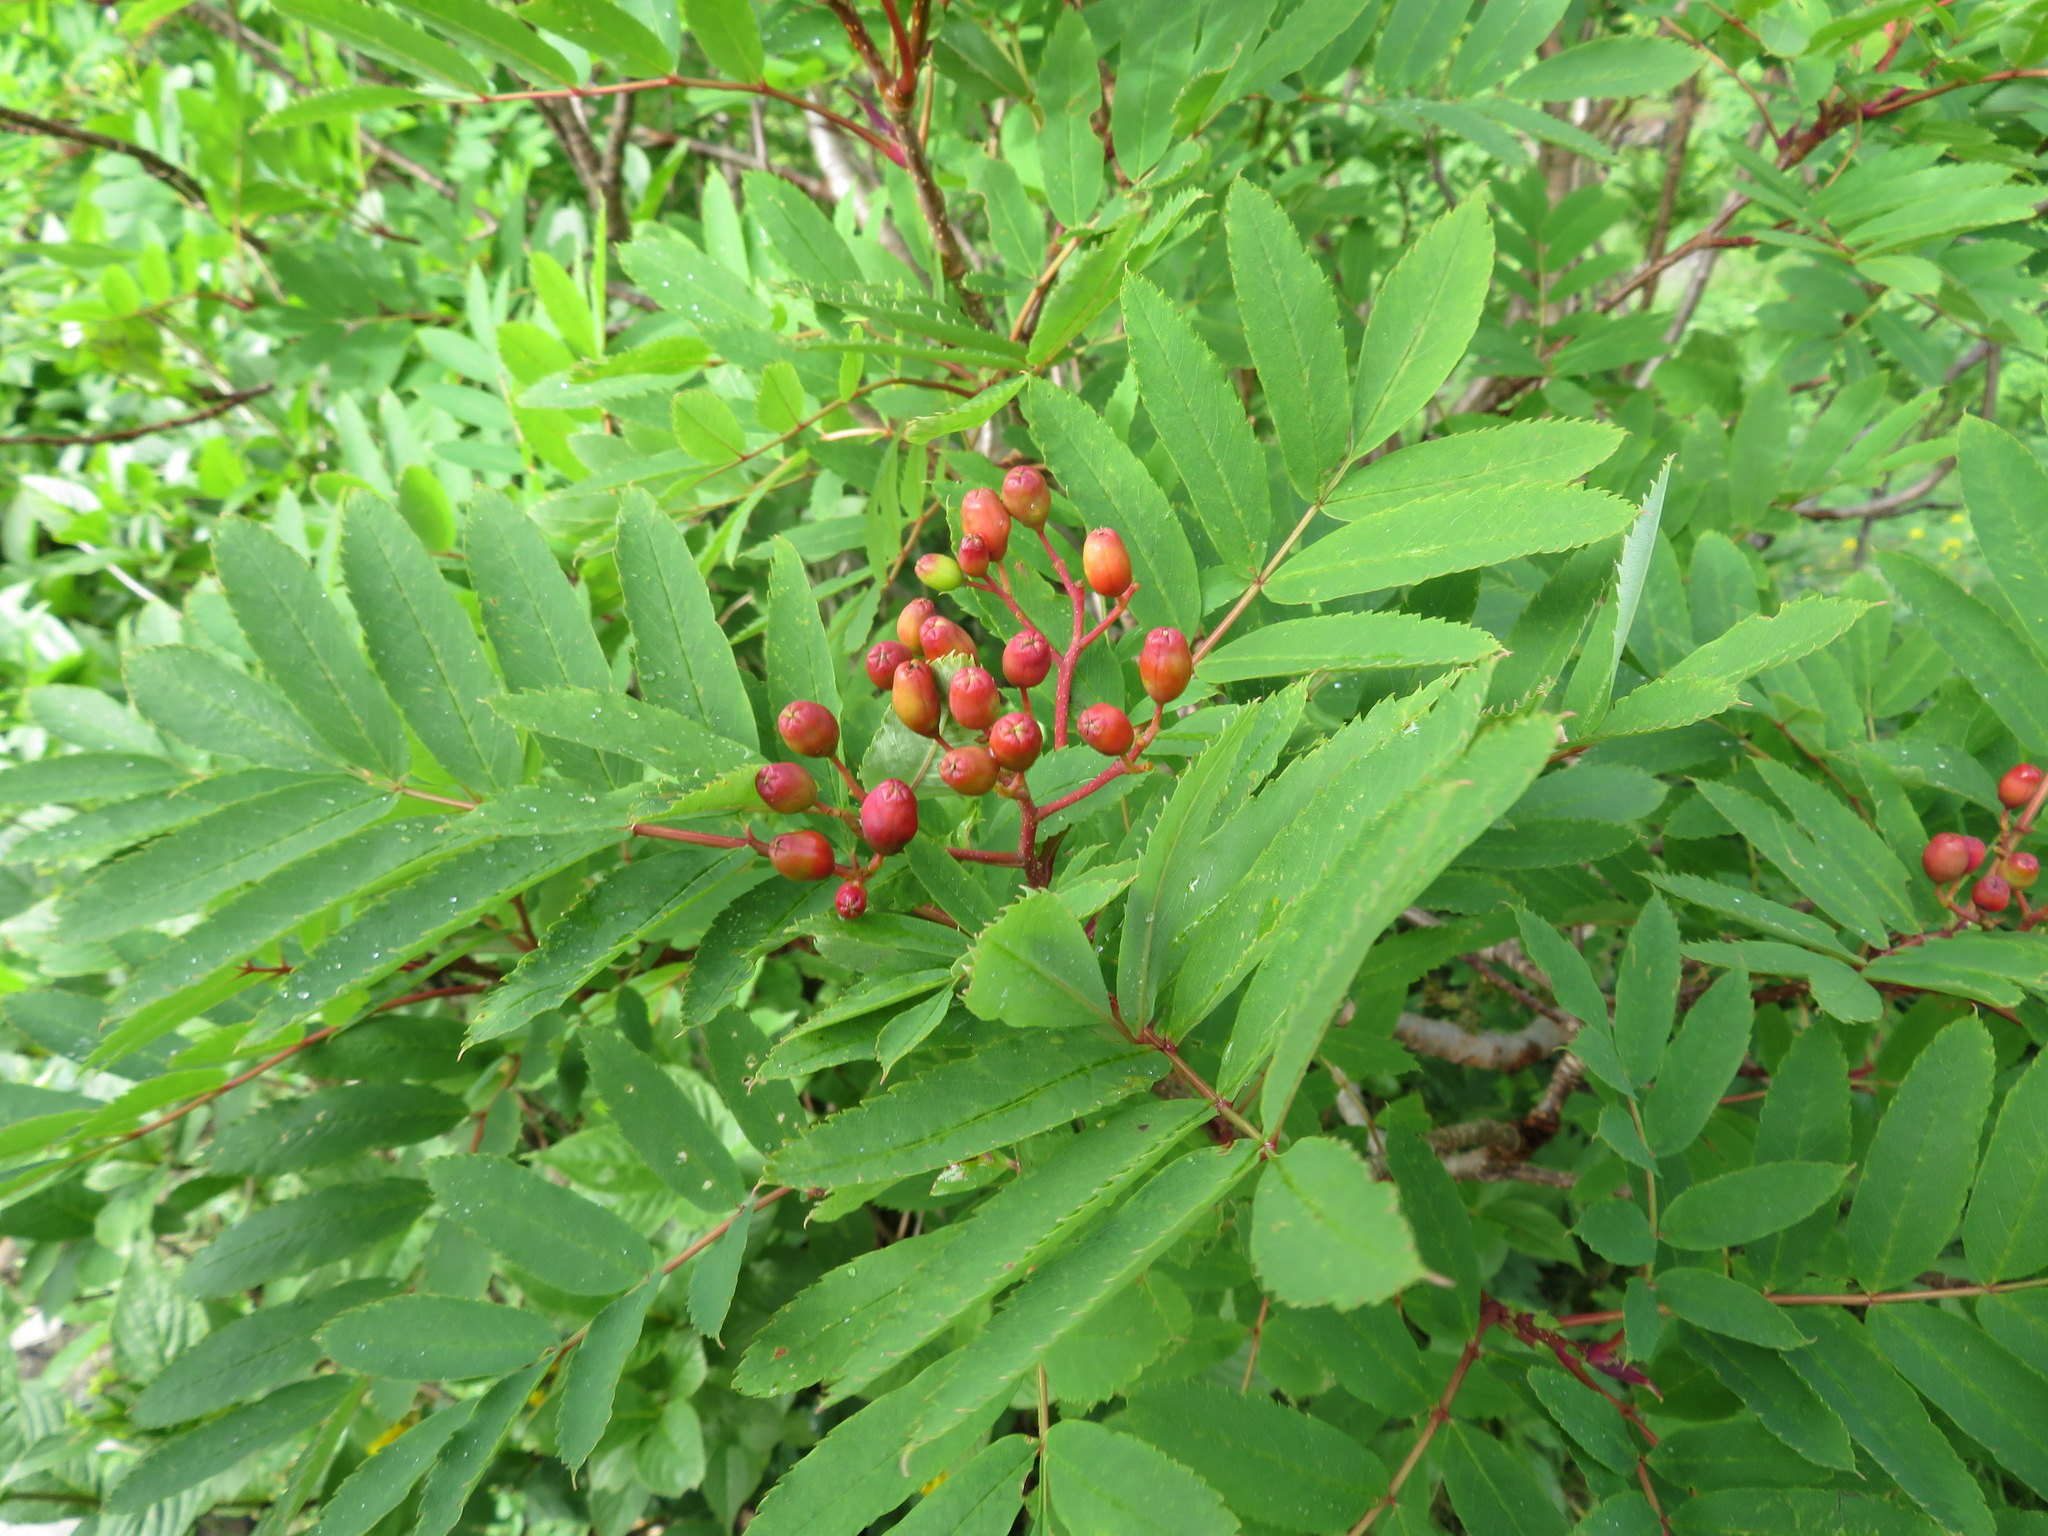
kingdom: Plantae
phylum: Tracheophyta
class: Magnoliopsida
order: Rosales
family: Rosaceae
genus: Sorbus
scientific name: Sorbus commixta
